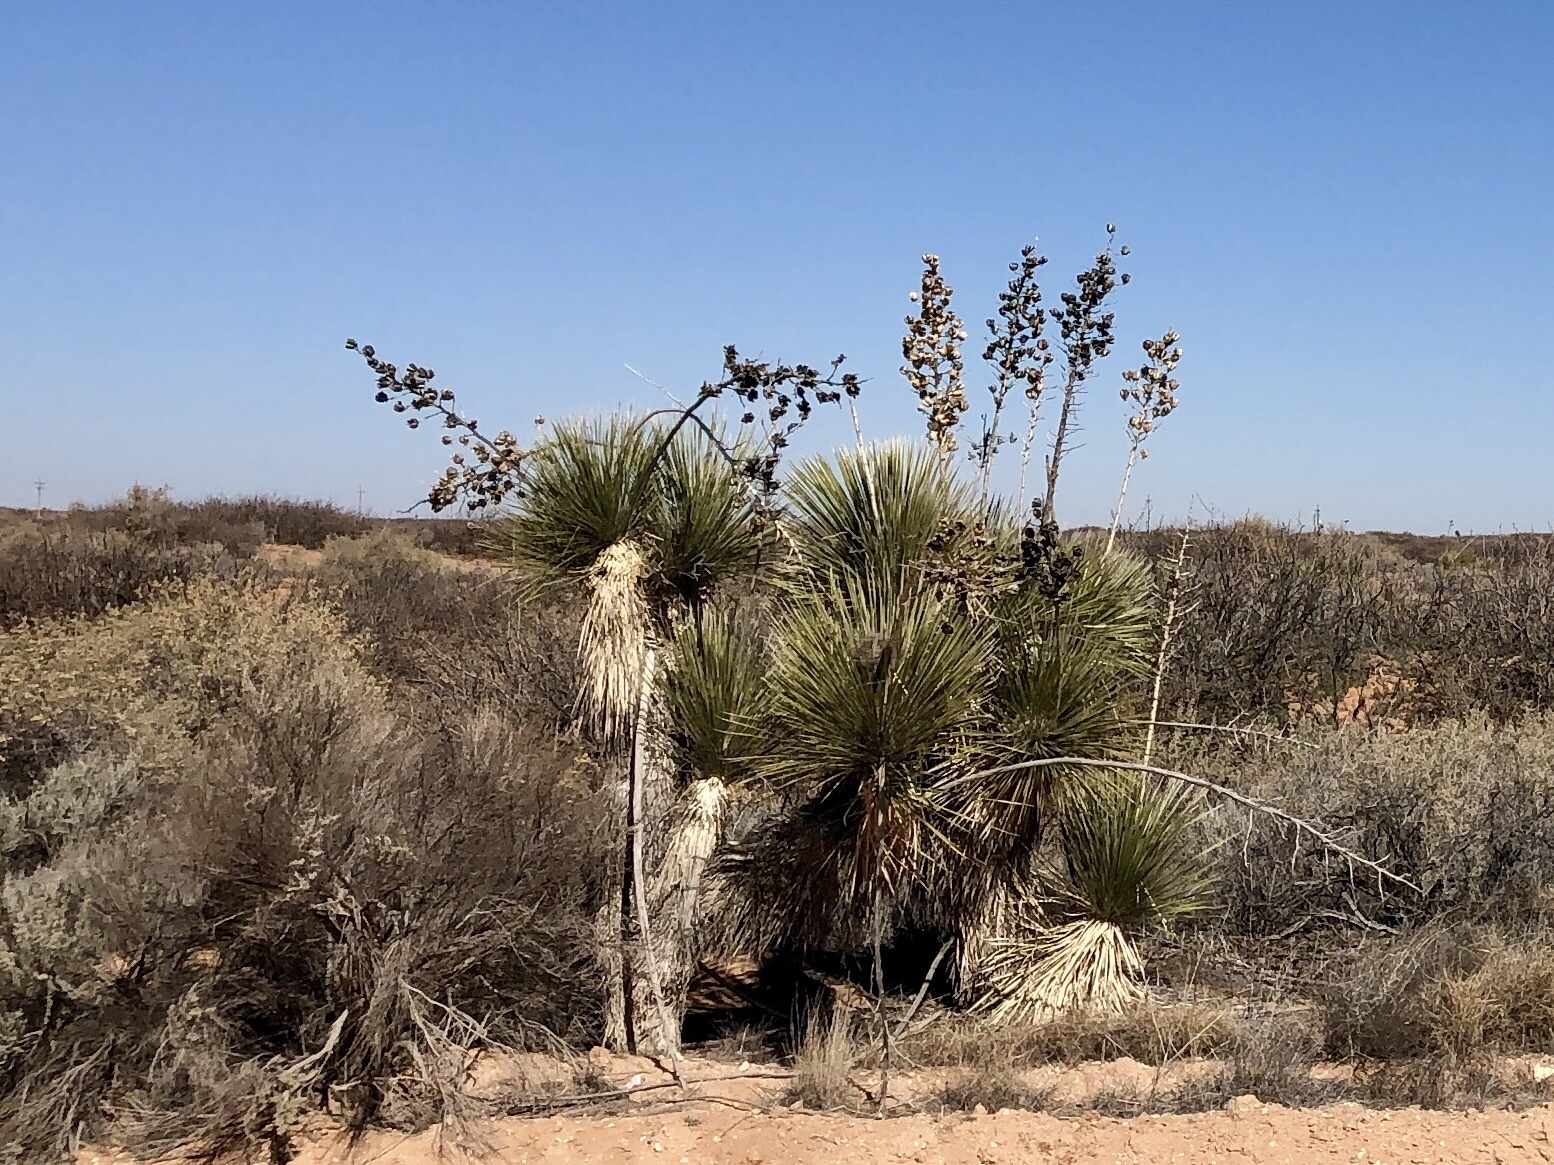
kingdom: Plantae
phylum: Tracheophyta
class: Liliopsida
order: Asparagales
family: Asparagaceae
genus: Yucca
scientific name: Yucca elata
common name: Palmella
